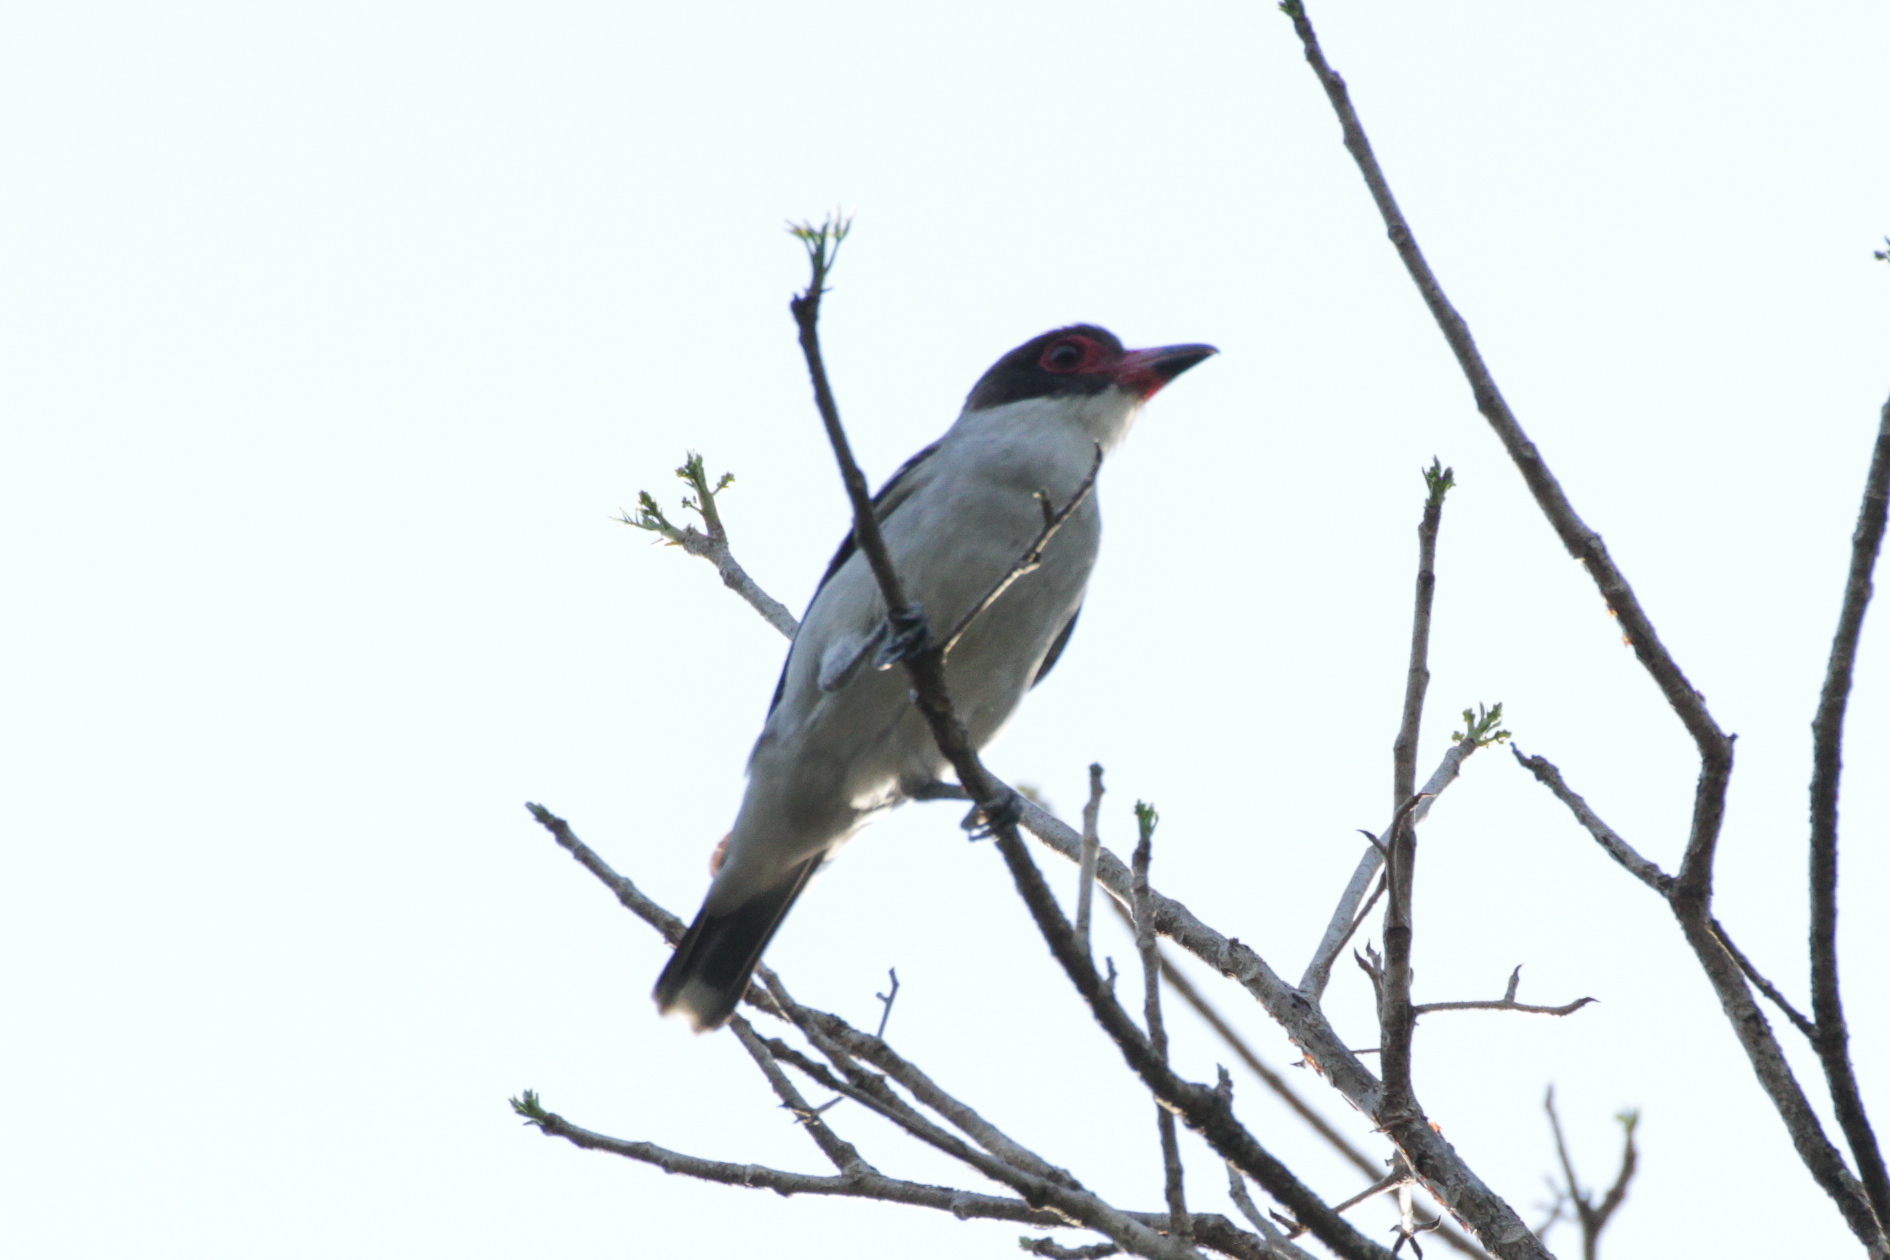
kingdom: Animalia
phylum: Chordata
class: Aves
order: Passeriformes
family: Cotingidae
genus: Tityra
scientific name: Tityra semifasciata
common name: Masked tityra
